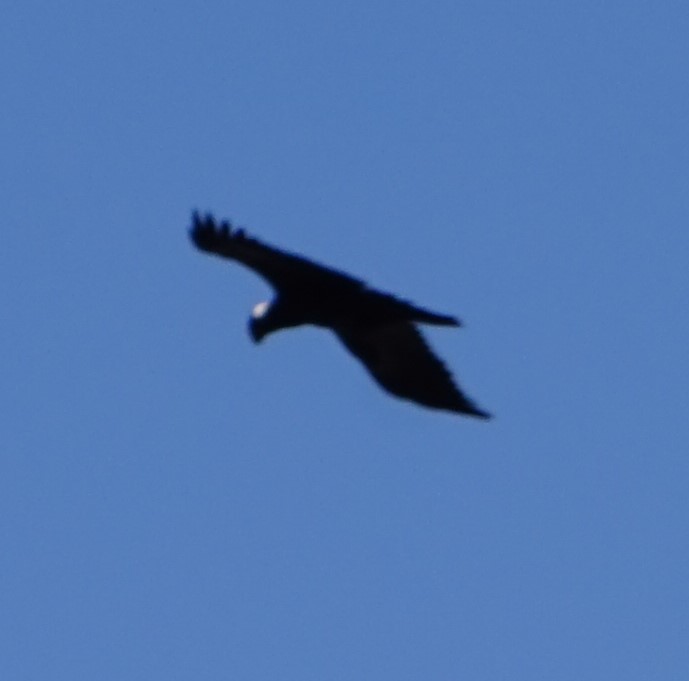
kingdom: Animalia
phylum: Chordata
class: Aves
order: Passeriformes
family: Corvidae
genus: Corvus
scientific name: Corvus crassirostris
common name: Thick-billed raven
